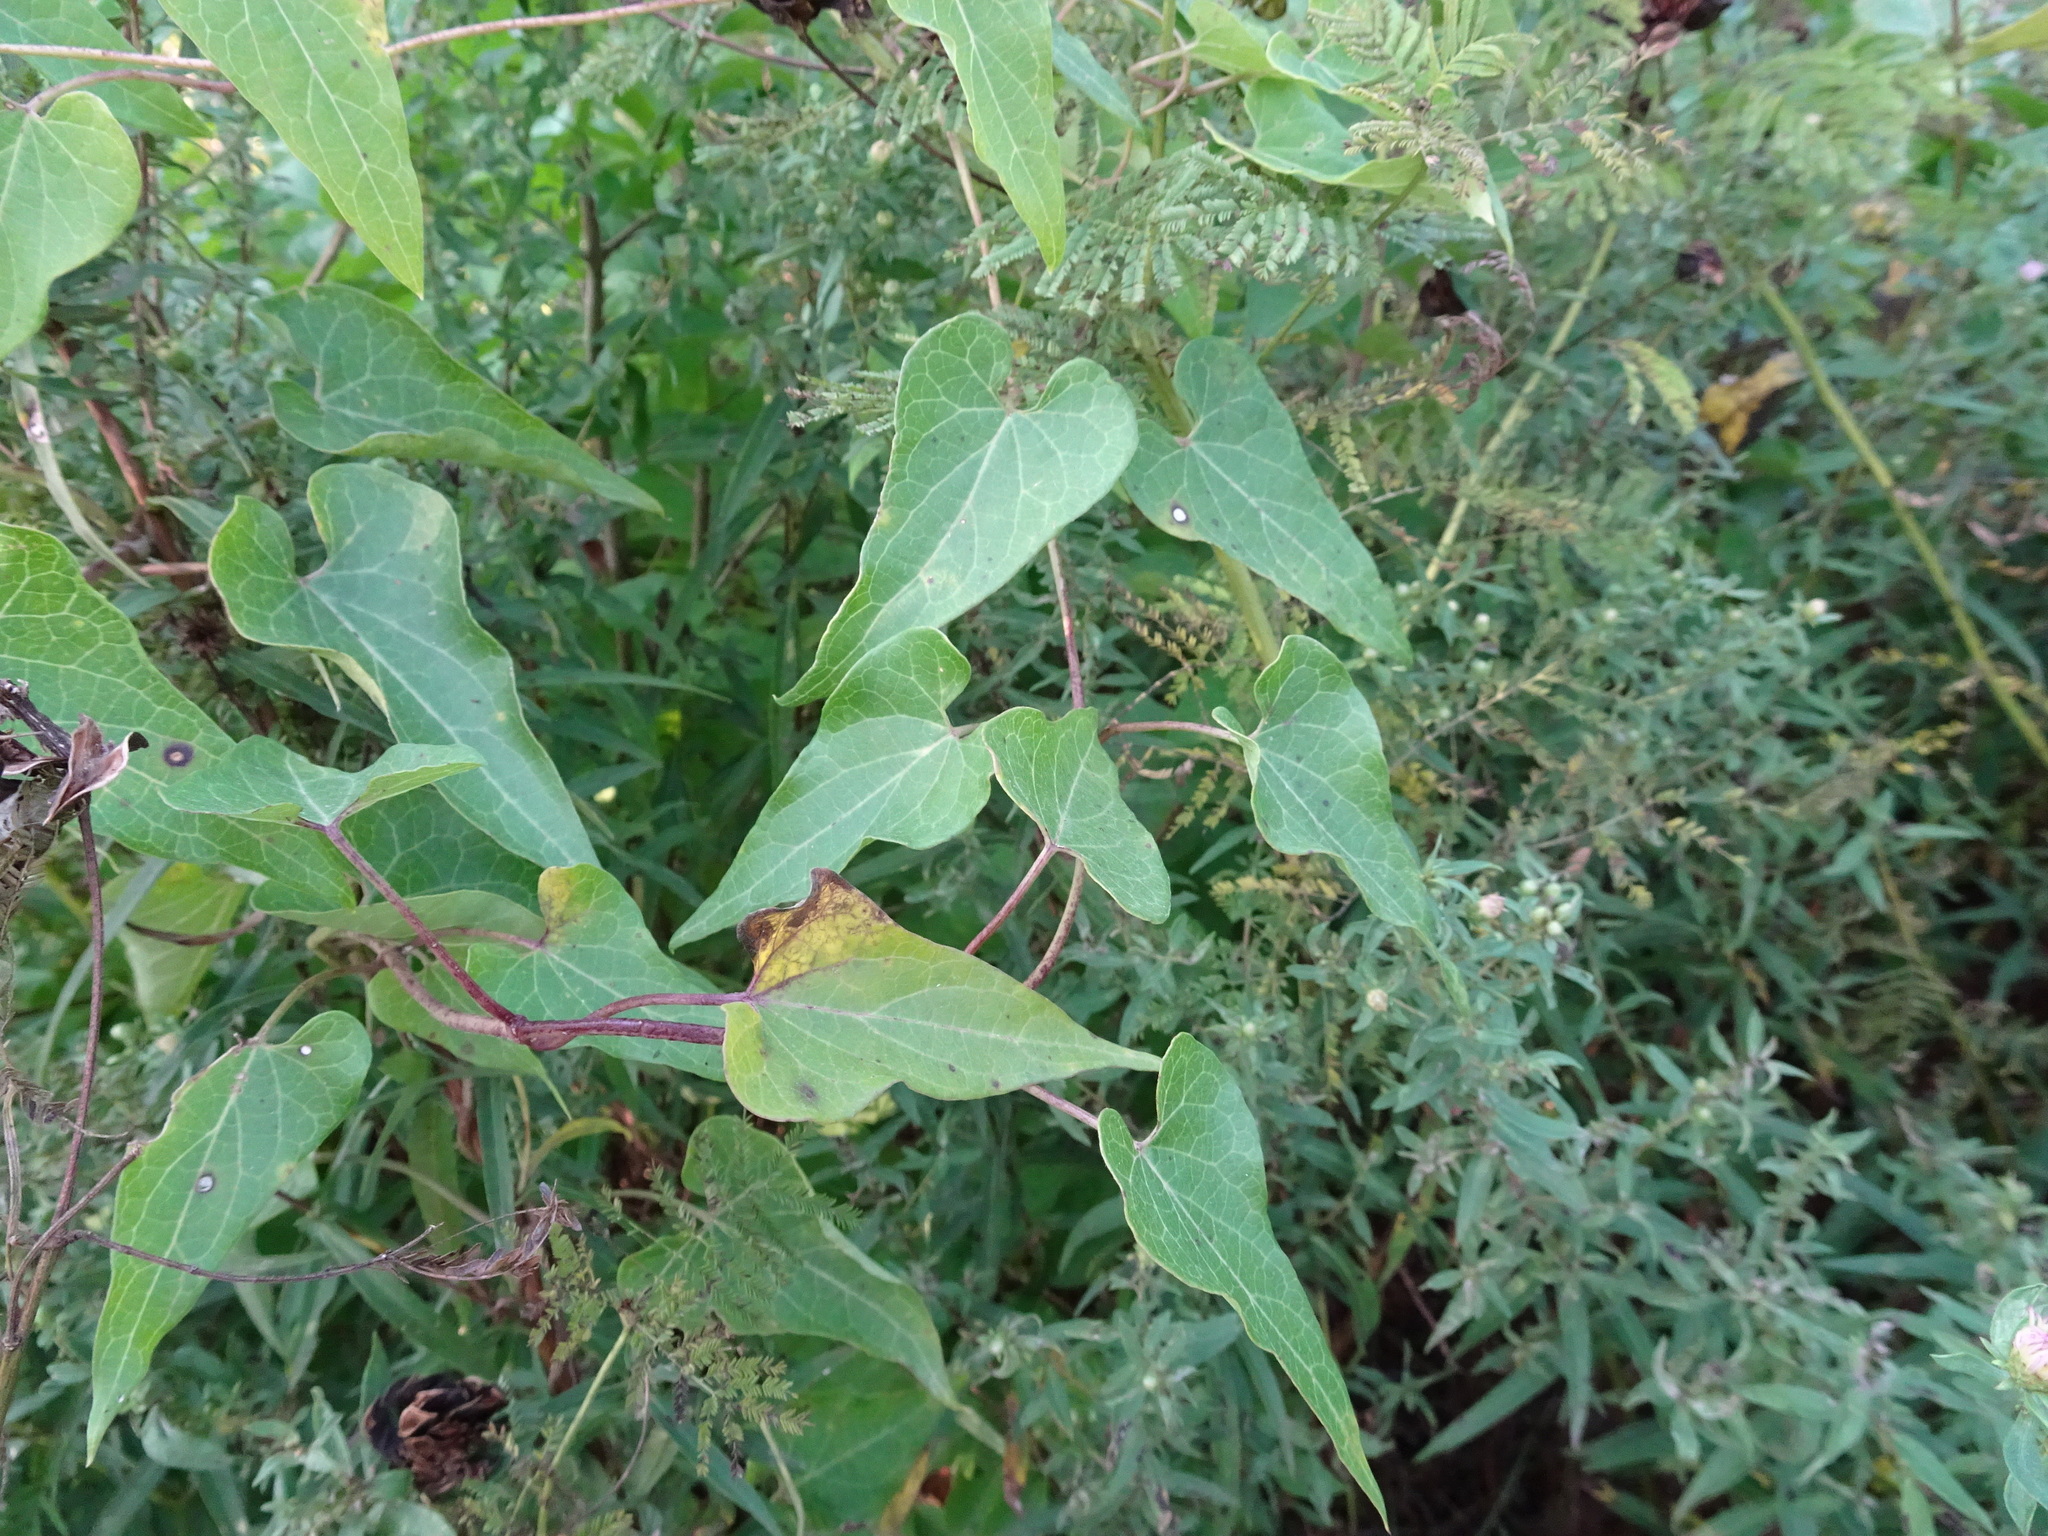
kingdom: Plantae
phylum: Tracheophyta
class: Magnoliopsida
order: Gentianales
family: Apocynaceae
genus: Cynanchum
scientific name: Cynanchum laeve
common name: Sandvine
